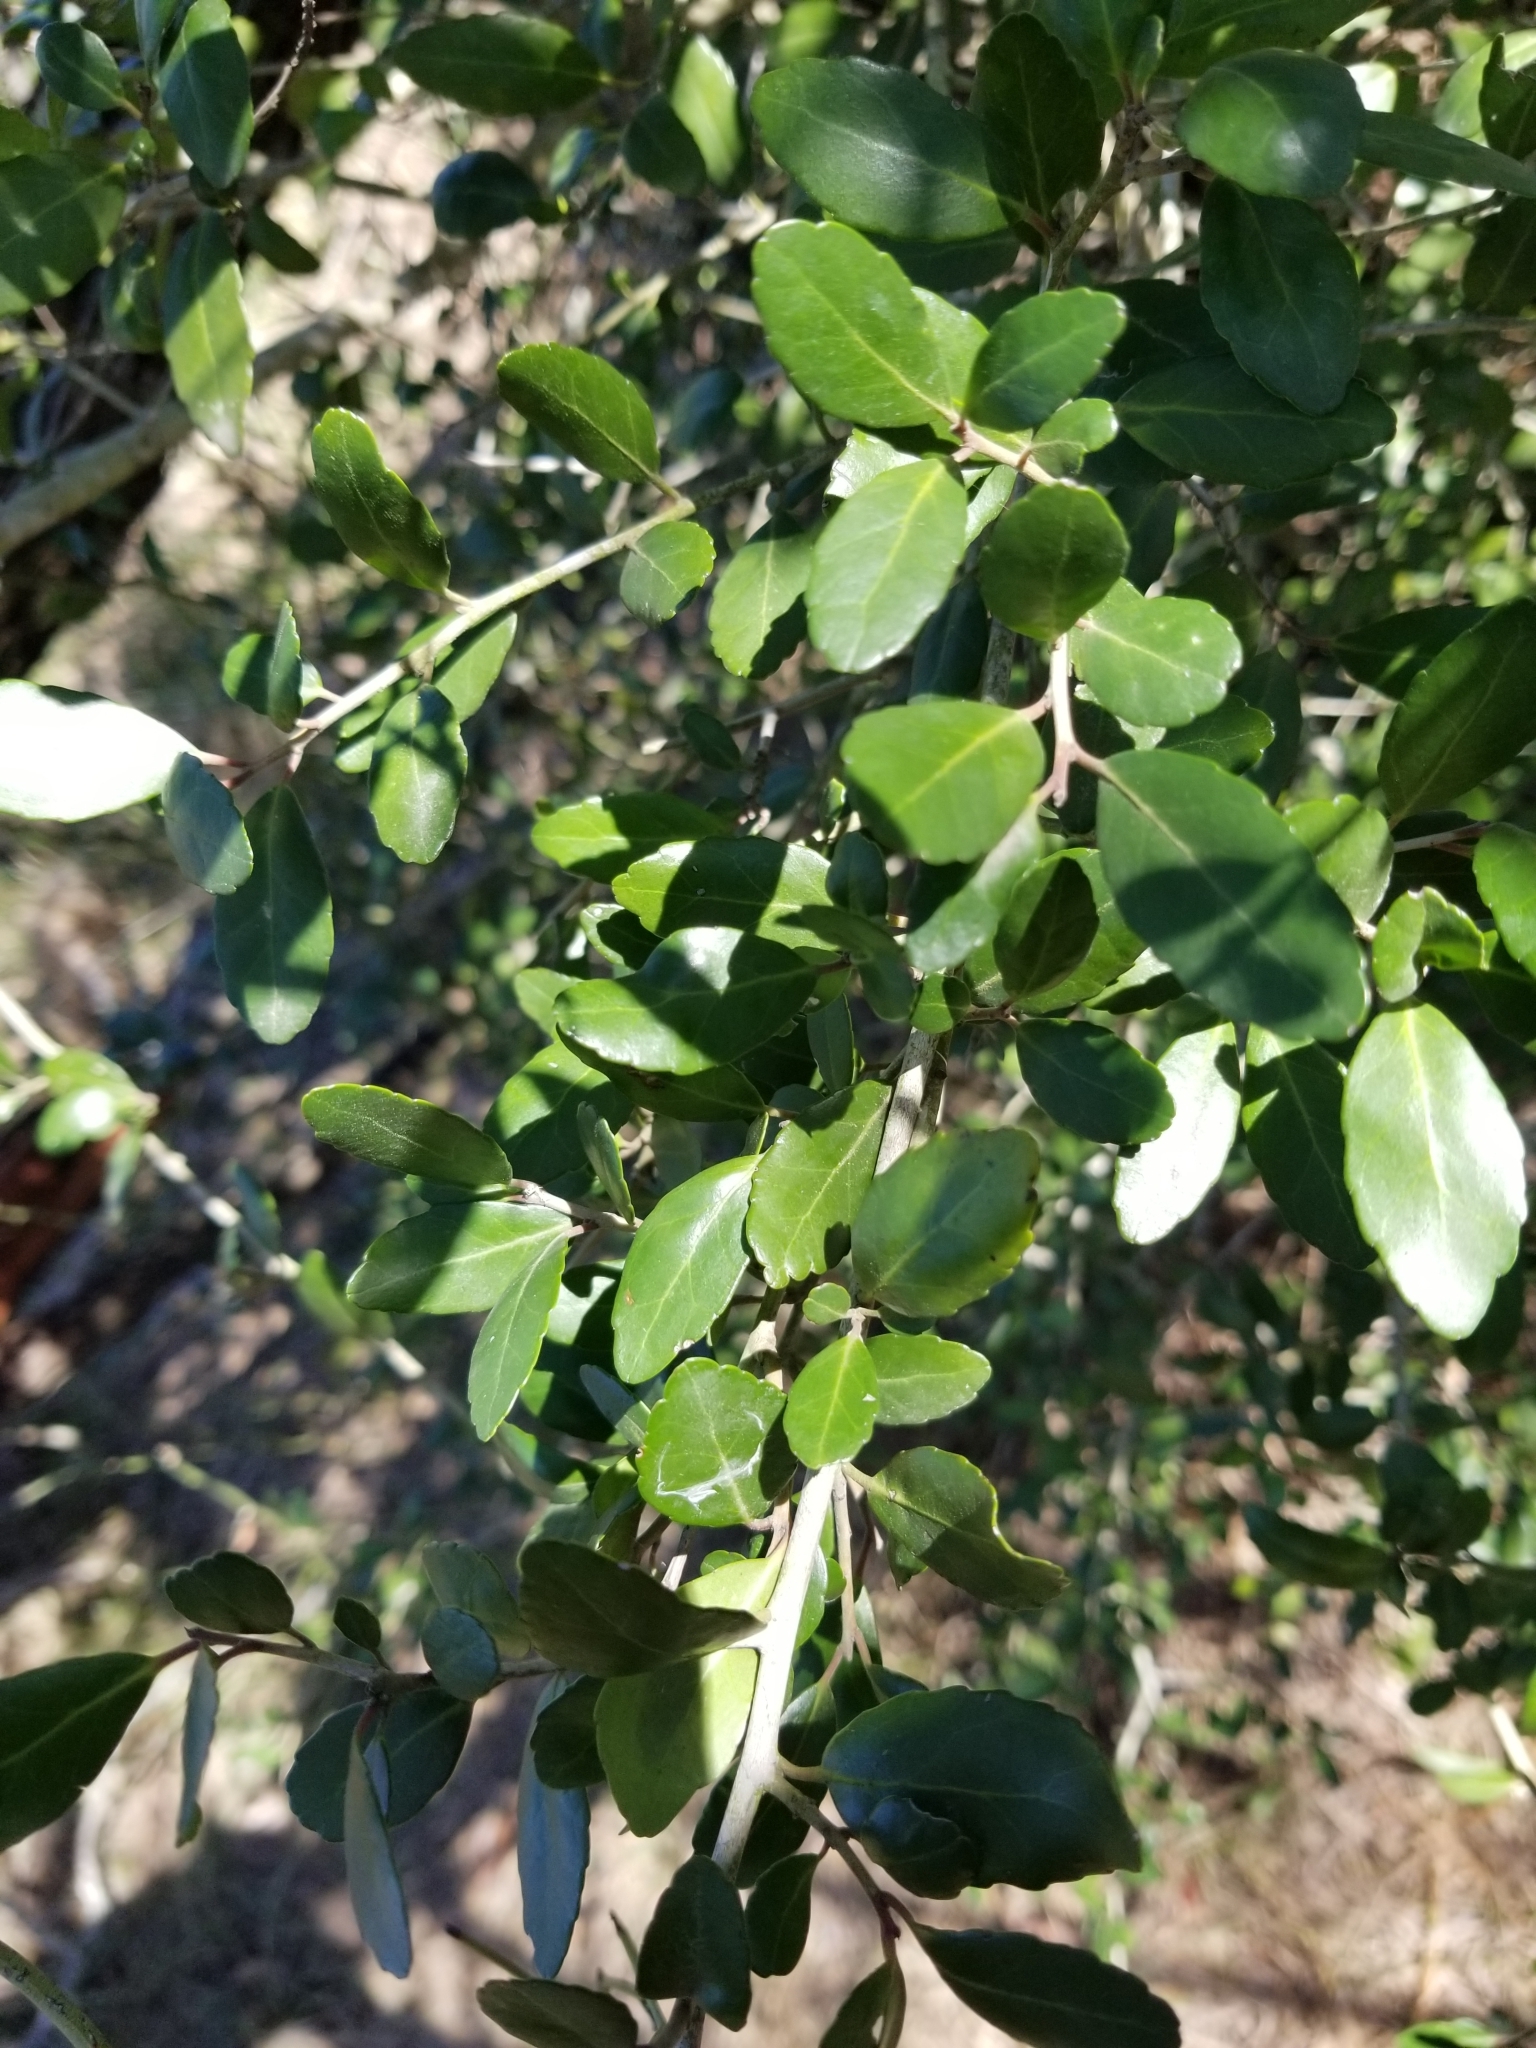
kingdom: Plantae
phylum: Tracheophyta
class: Magnoliopsida
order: Aquifoliales
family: Aquifoliaceae
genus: Ilex
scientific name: Ilex vomitoria
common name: Yaupon holly
